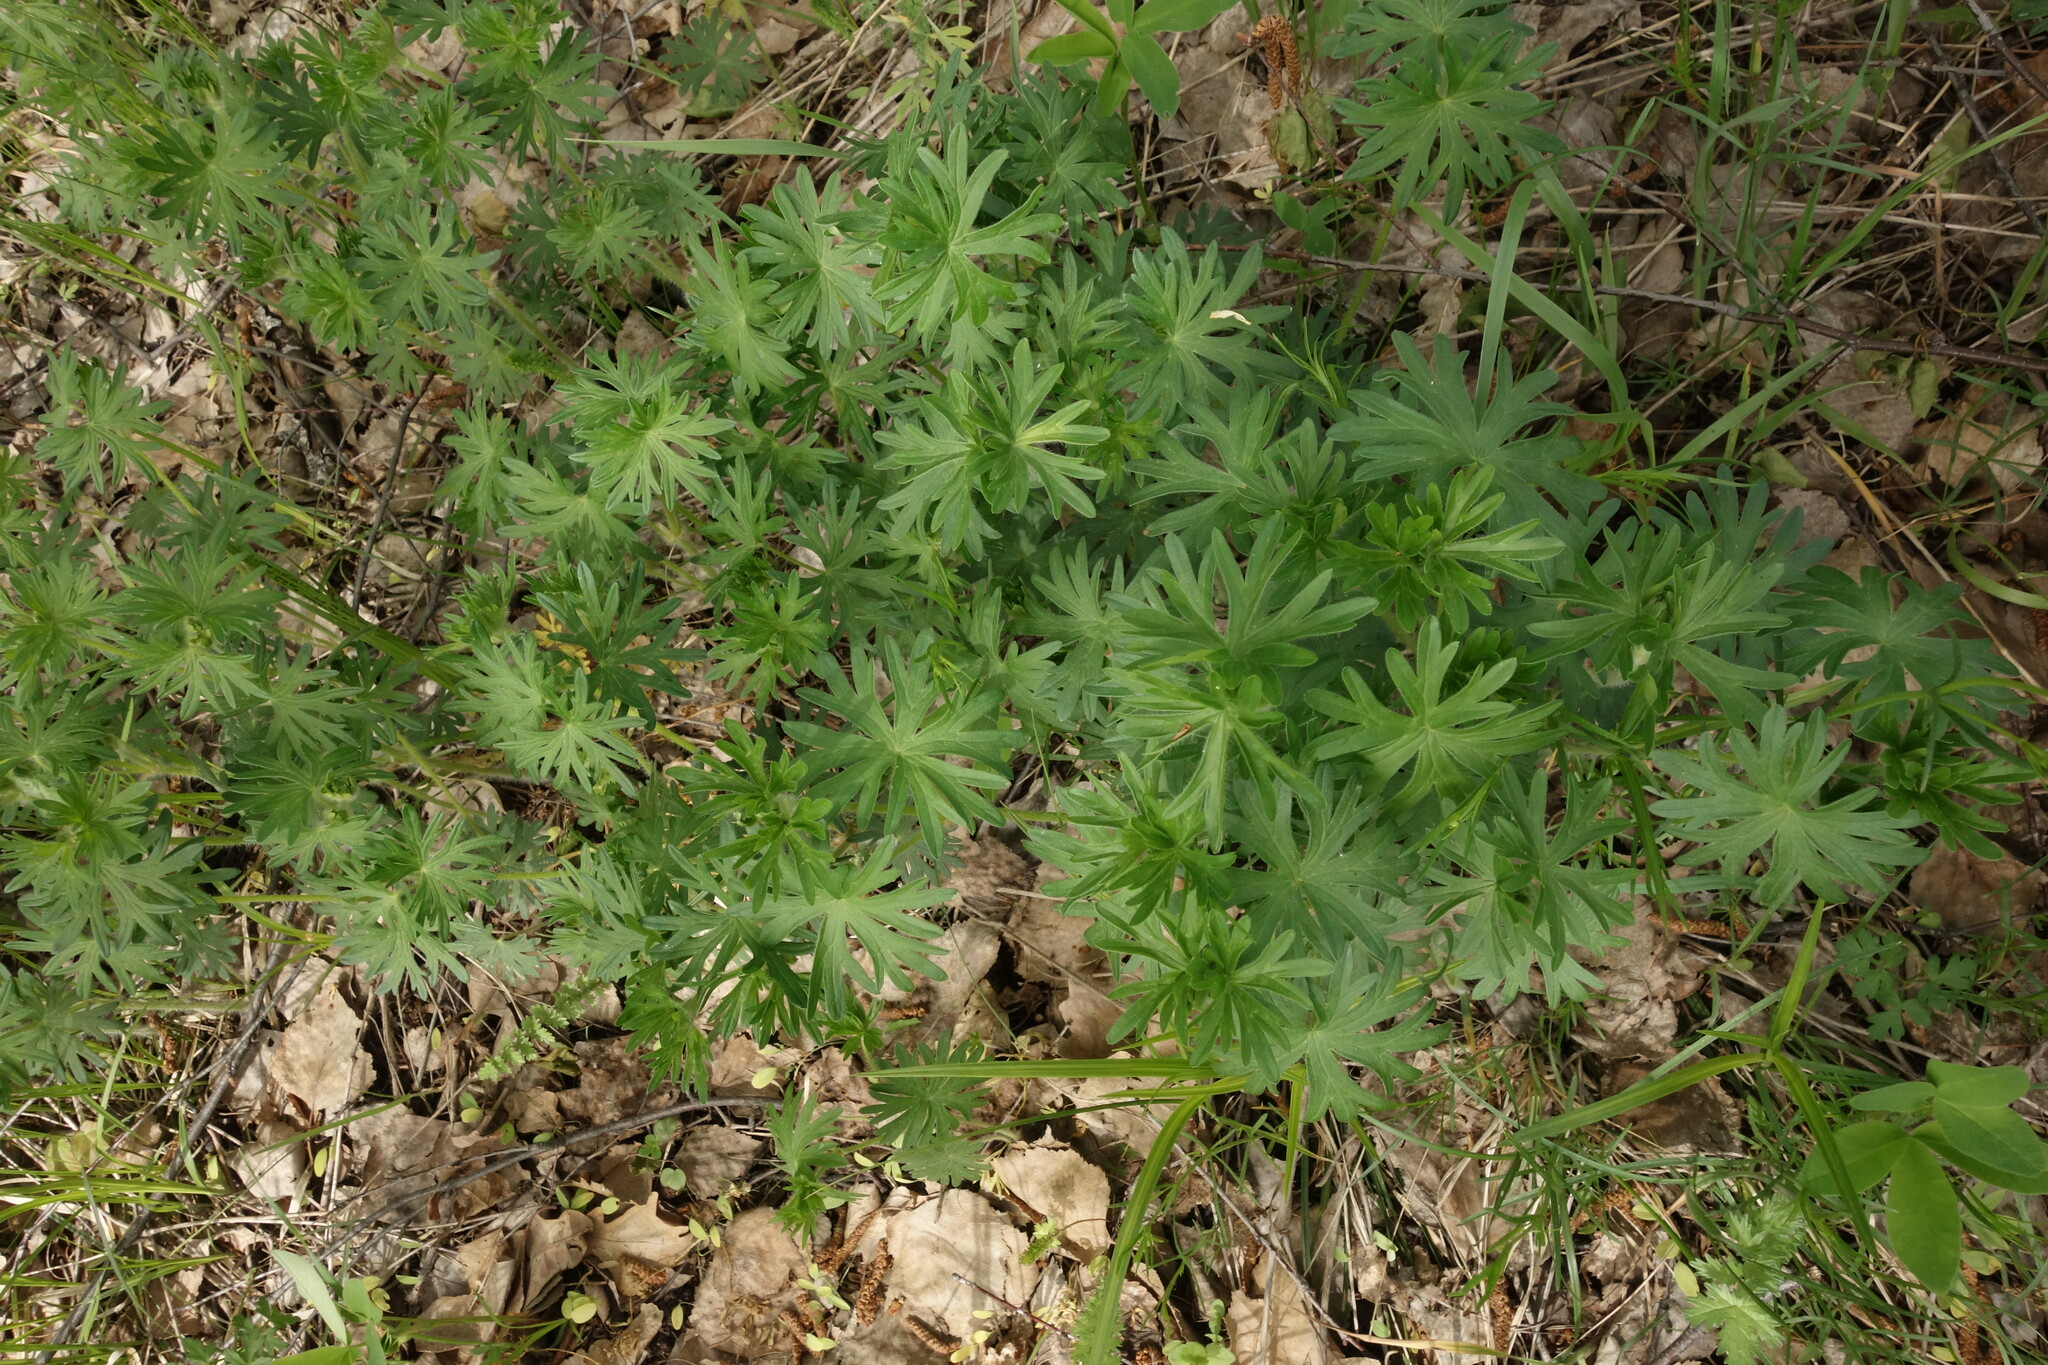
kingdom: Plantae
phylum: Tracheophyta
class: Magnoliopsida
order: Geraniales
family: Geraniaceae
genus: Geranium
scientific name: Geranium sanguineum
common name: Bloody crane's-bill
